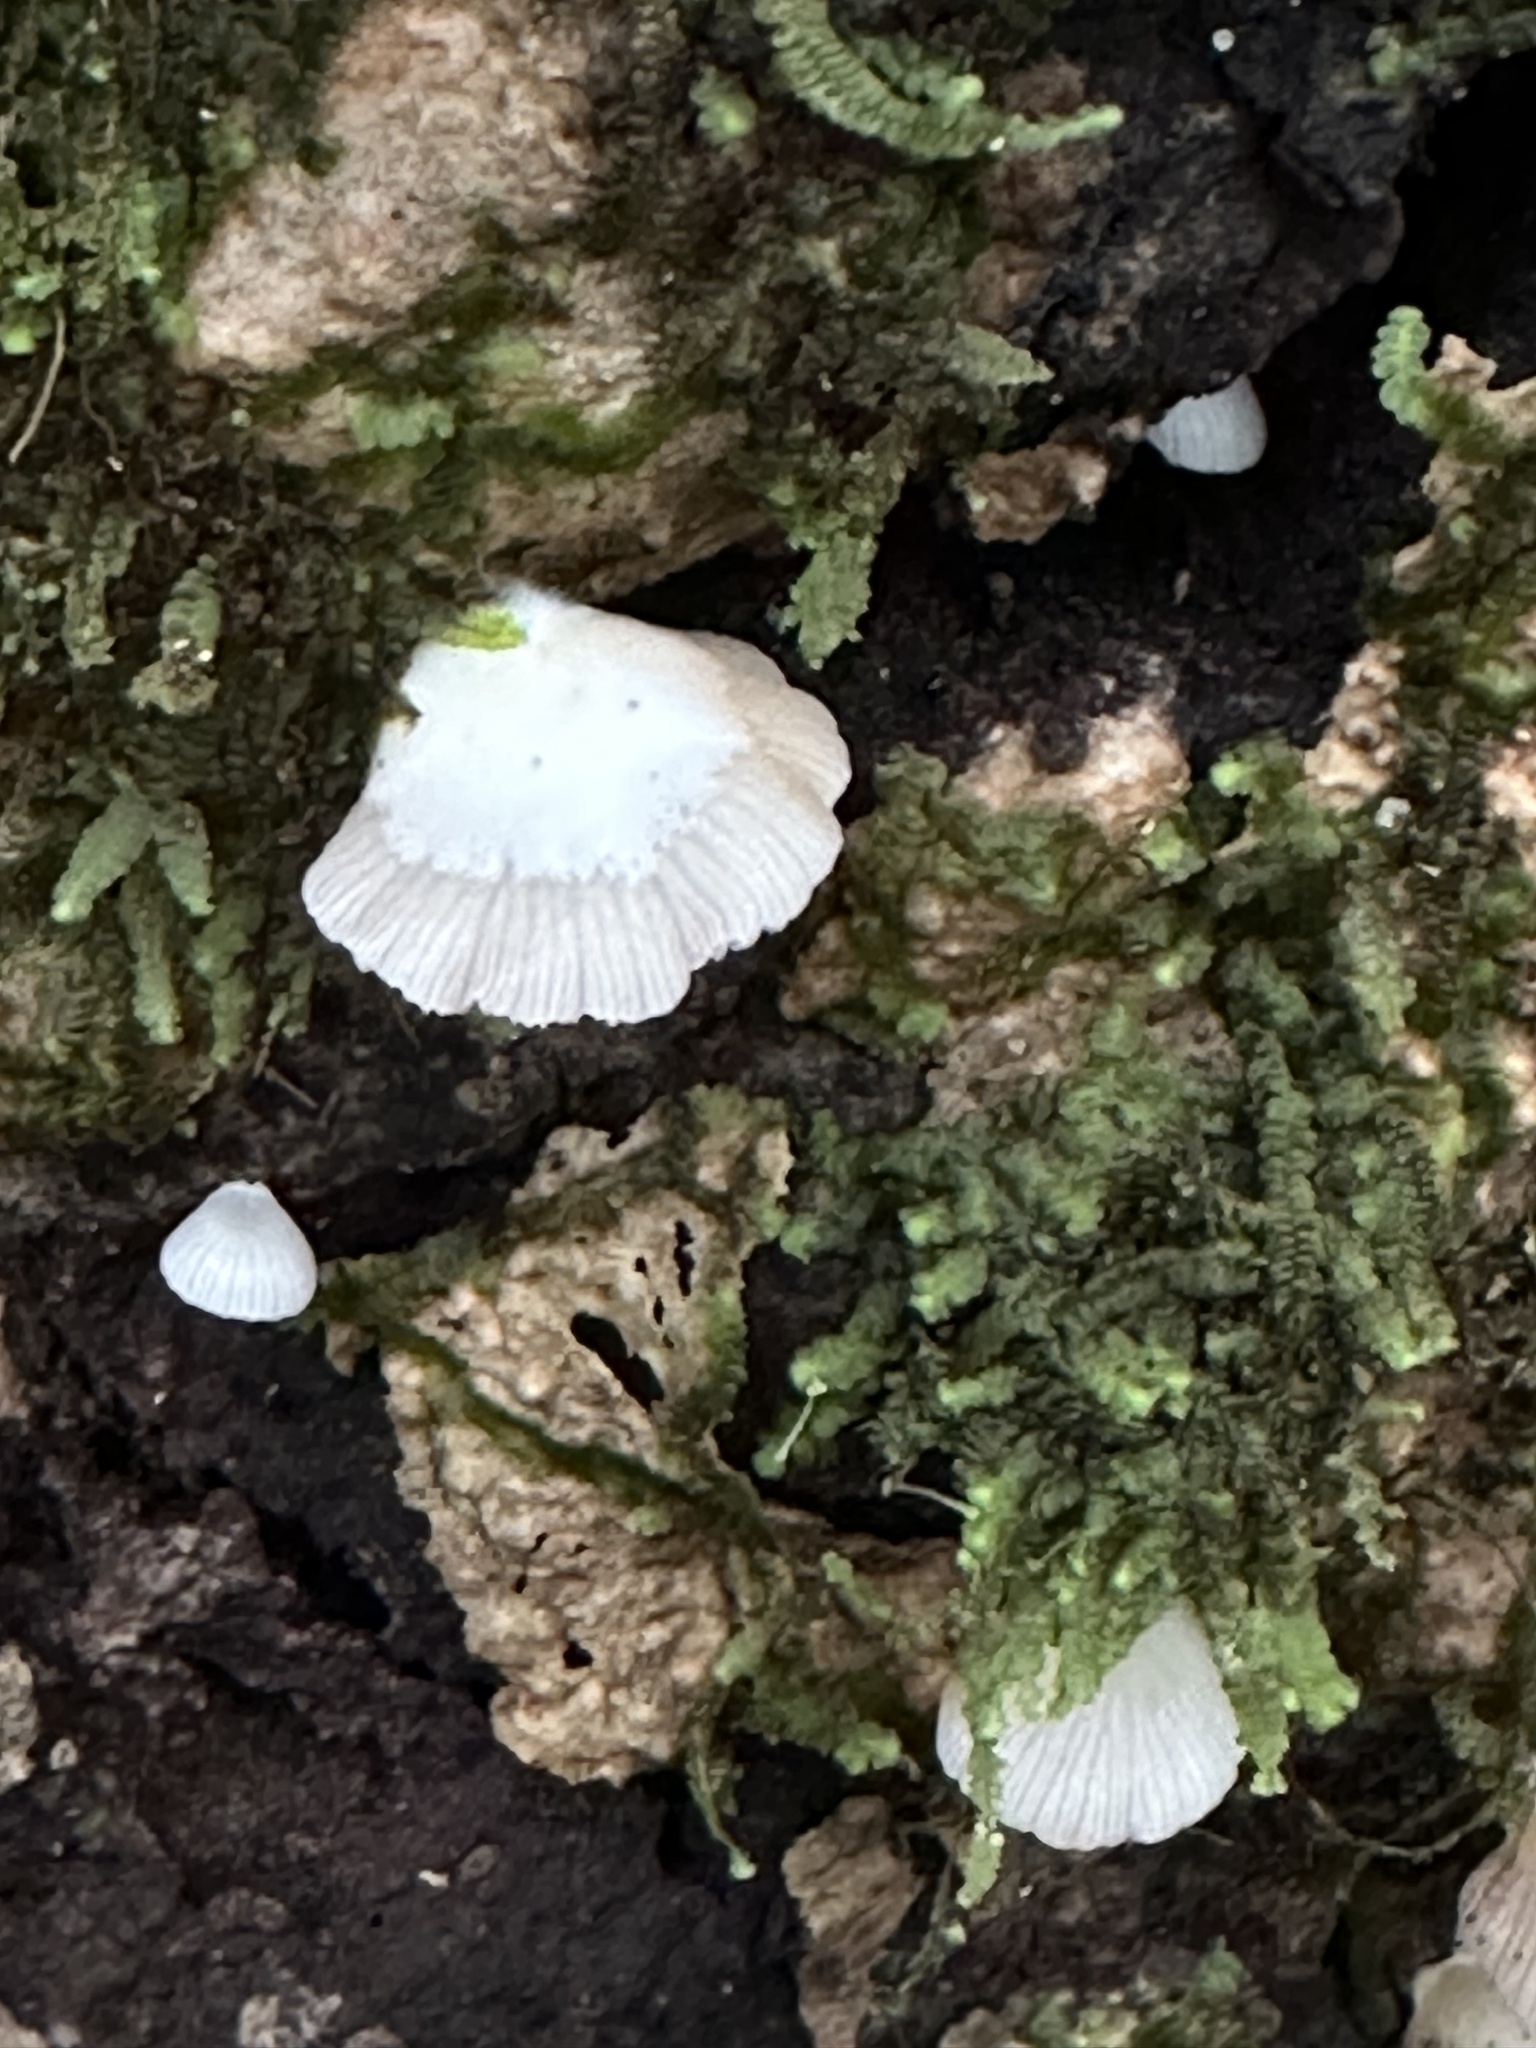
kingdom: Fungi
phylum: Basidiomycota
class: Agaricomycetes
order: Agaricales
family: Crepidotaceae
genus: Crepidotus
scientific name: Crepidotus applanatus
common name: Flat crep
